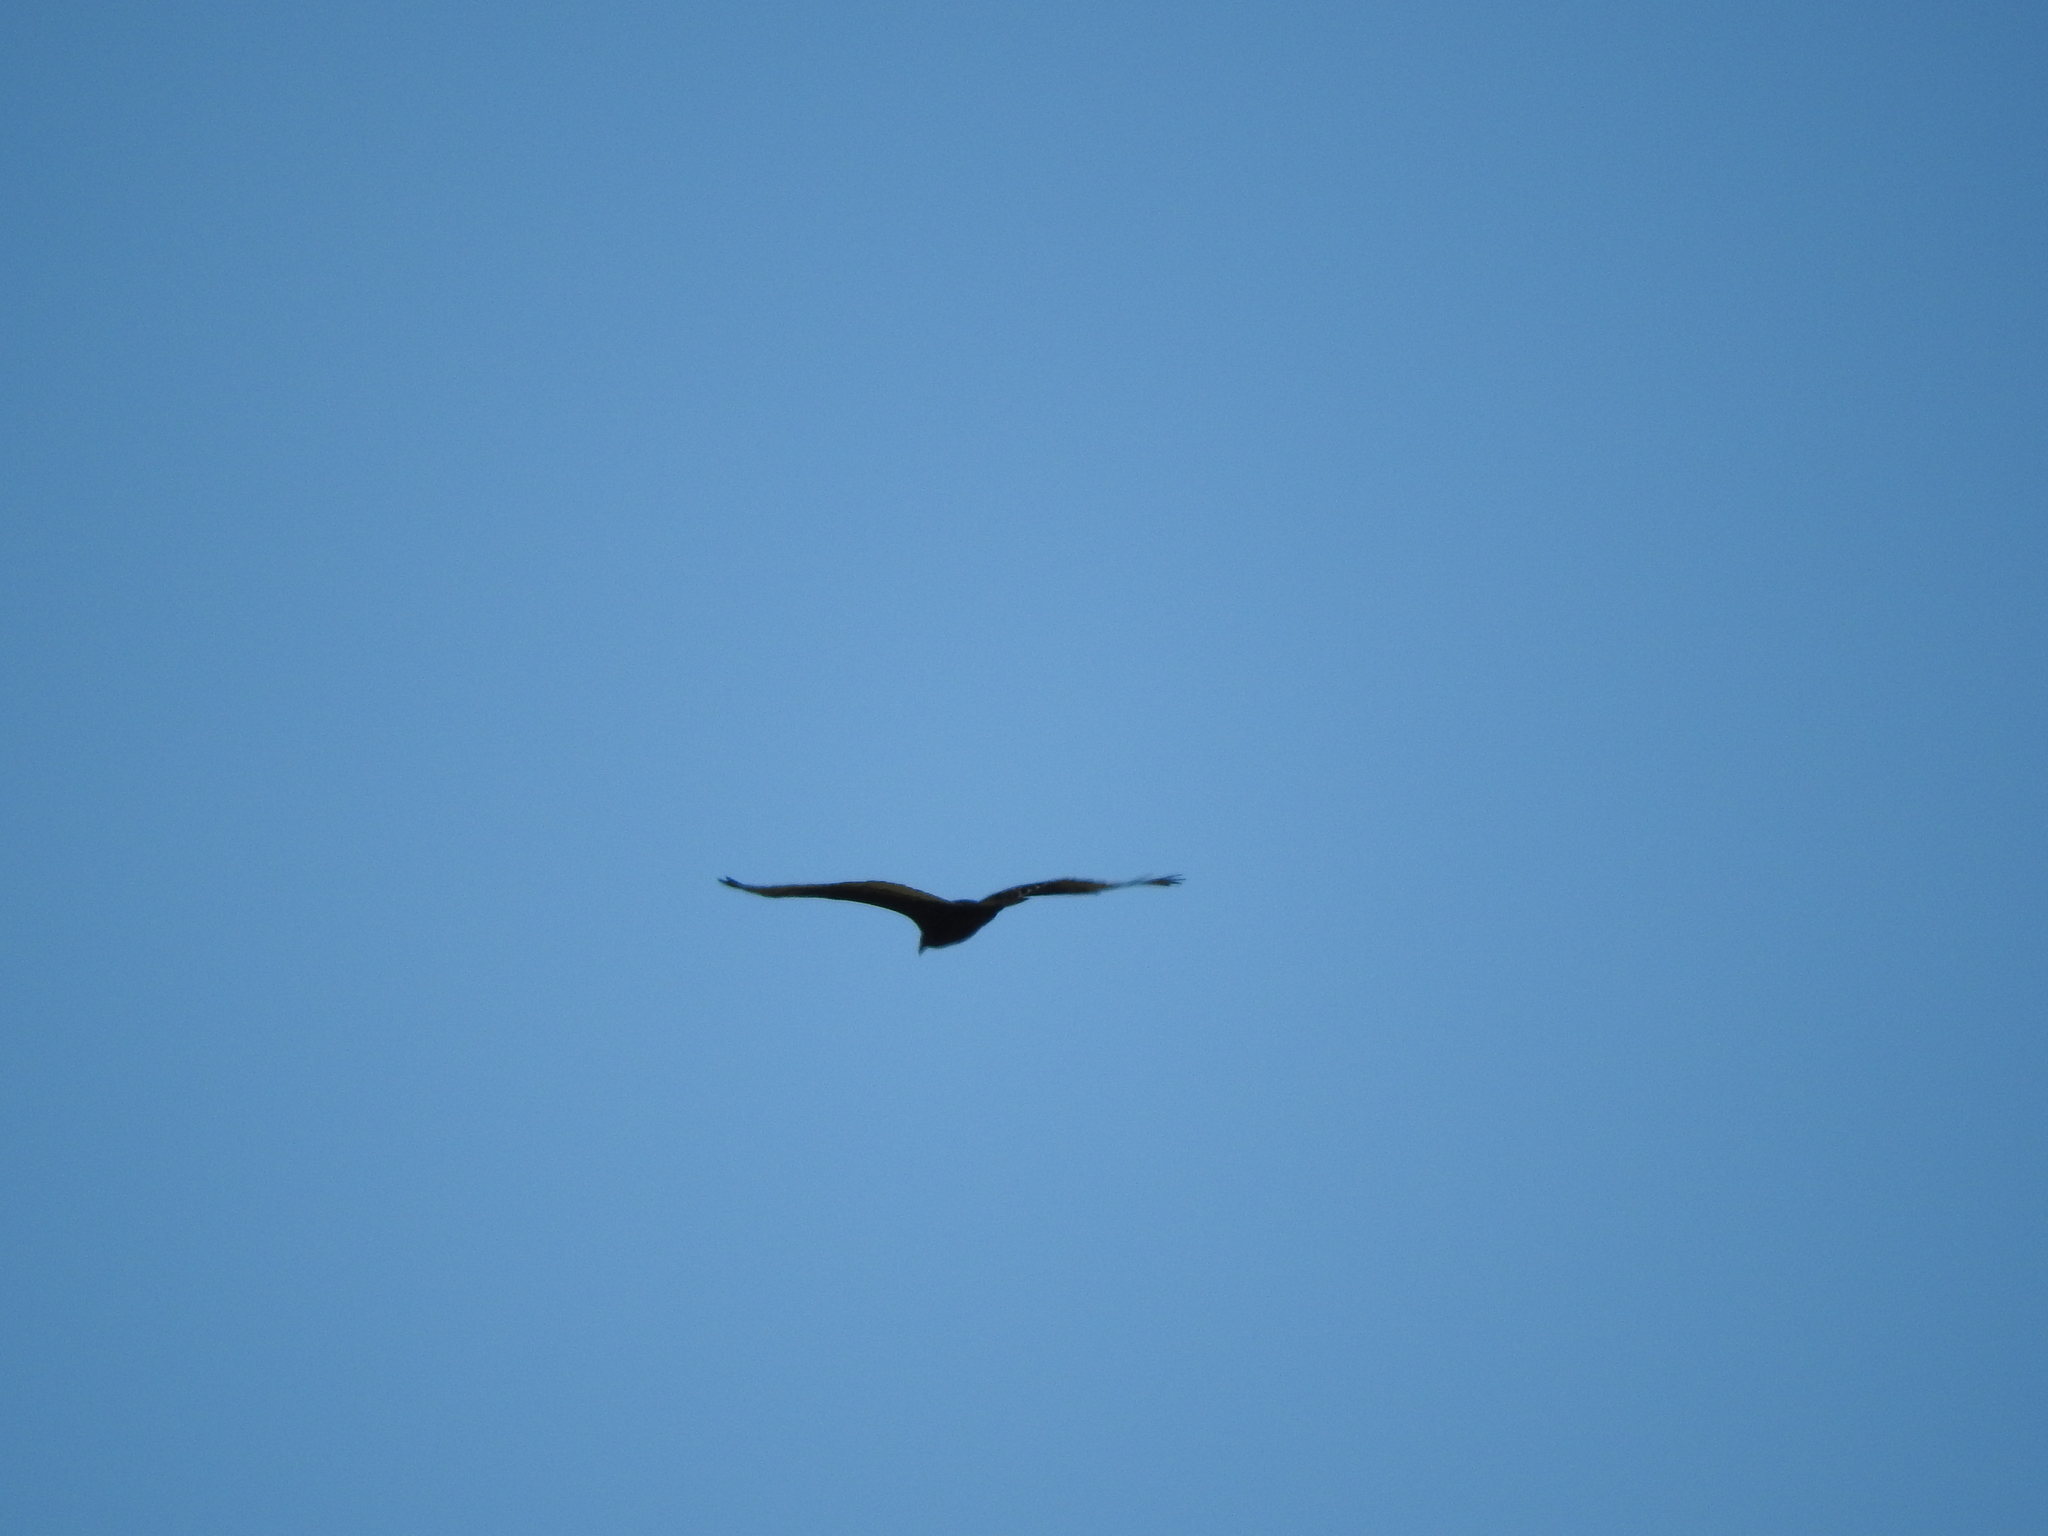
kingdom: Animalia
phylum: Chordata
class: Aves
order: Accipitriformes
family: Cathartidae
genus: Cathartes
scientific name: Cathartes aura
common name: Turkey vulture
